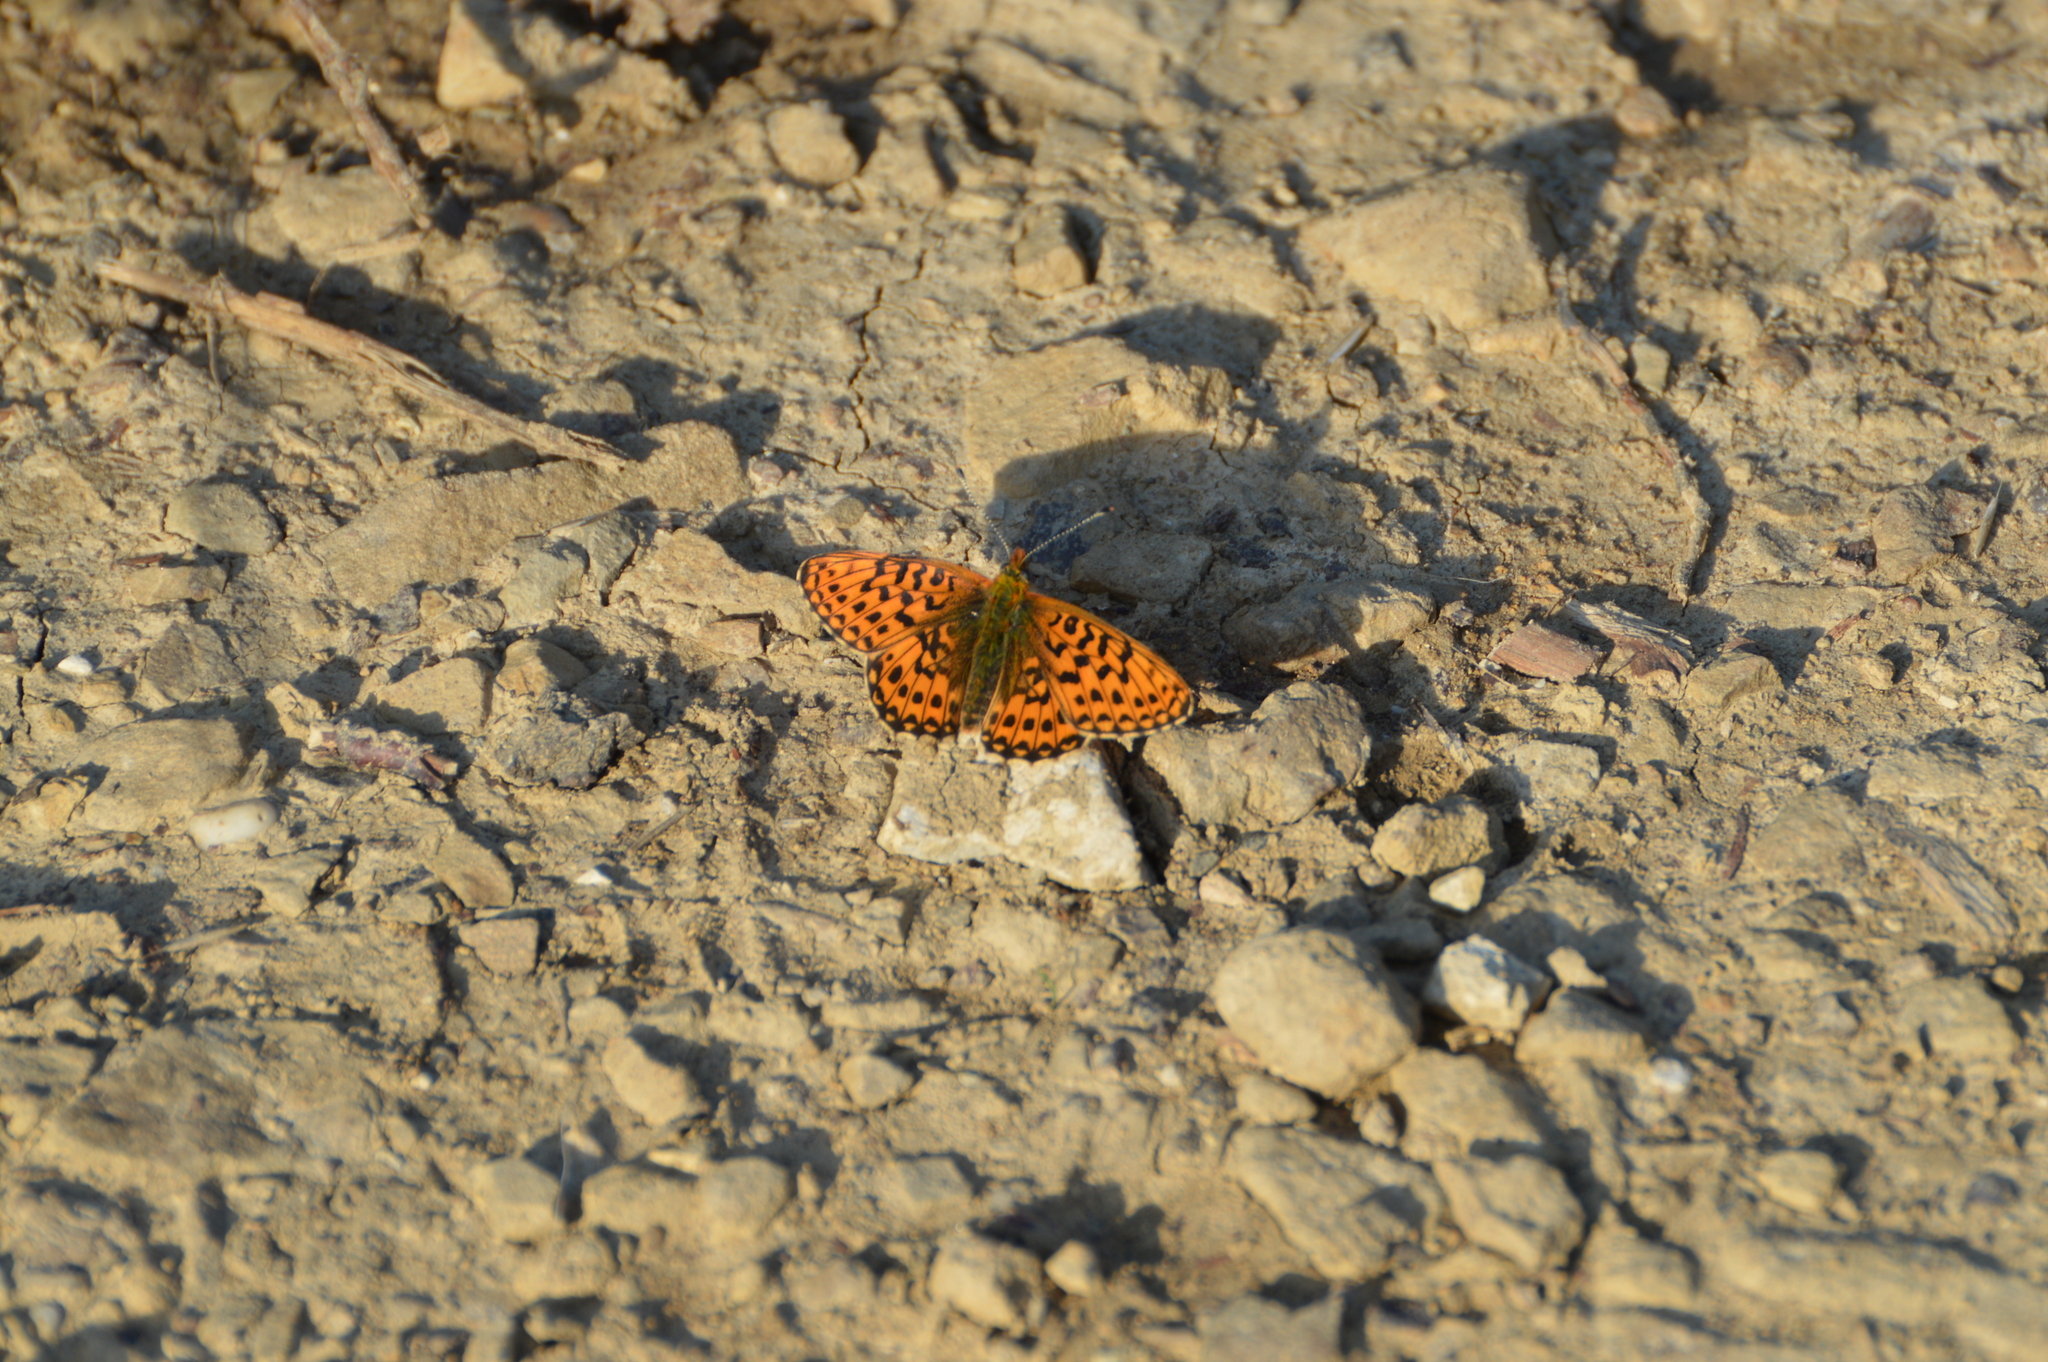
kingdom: Animalia
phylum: Arthropoda
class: Insecta
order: Lepidoptera
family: Nymphalidae
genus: Clossiana
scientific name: Clossiana euphrosyne
